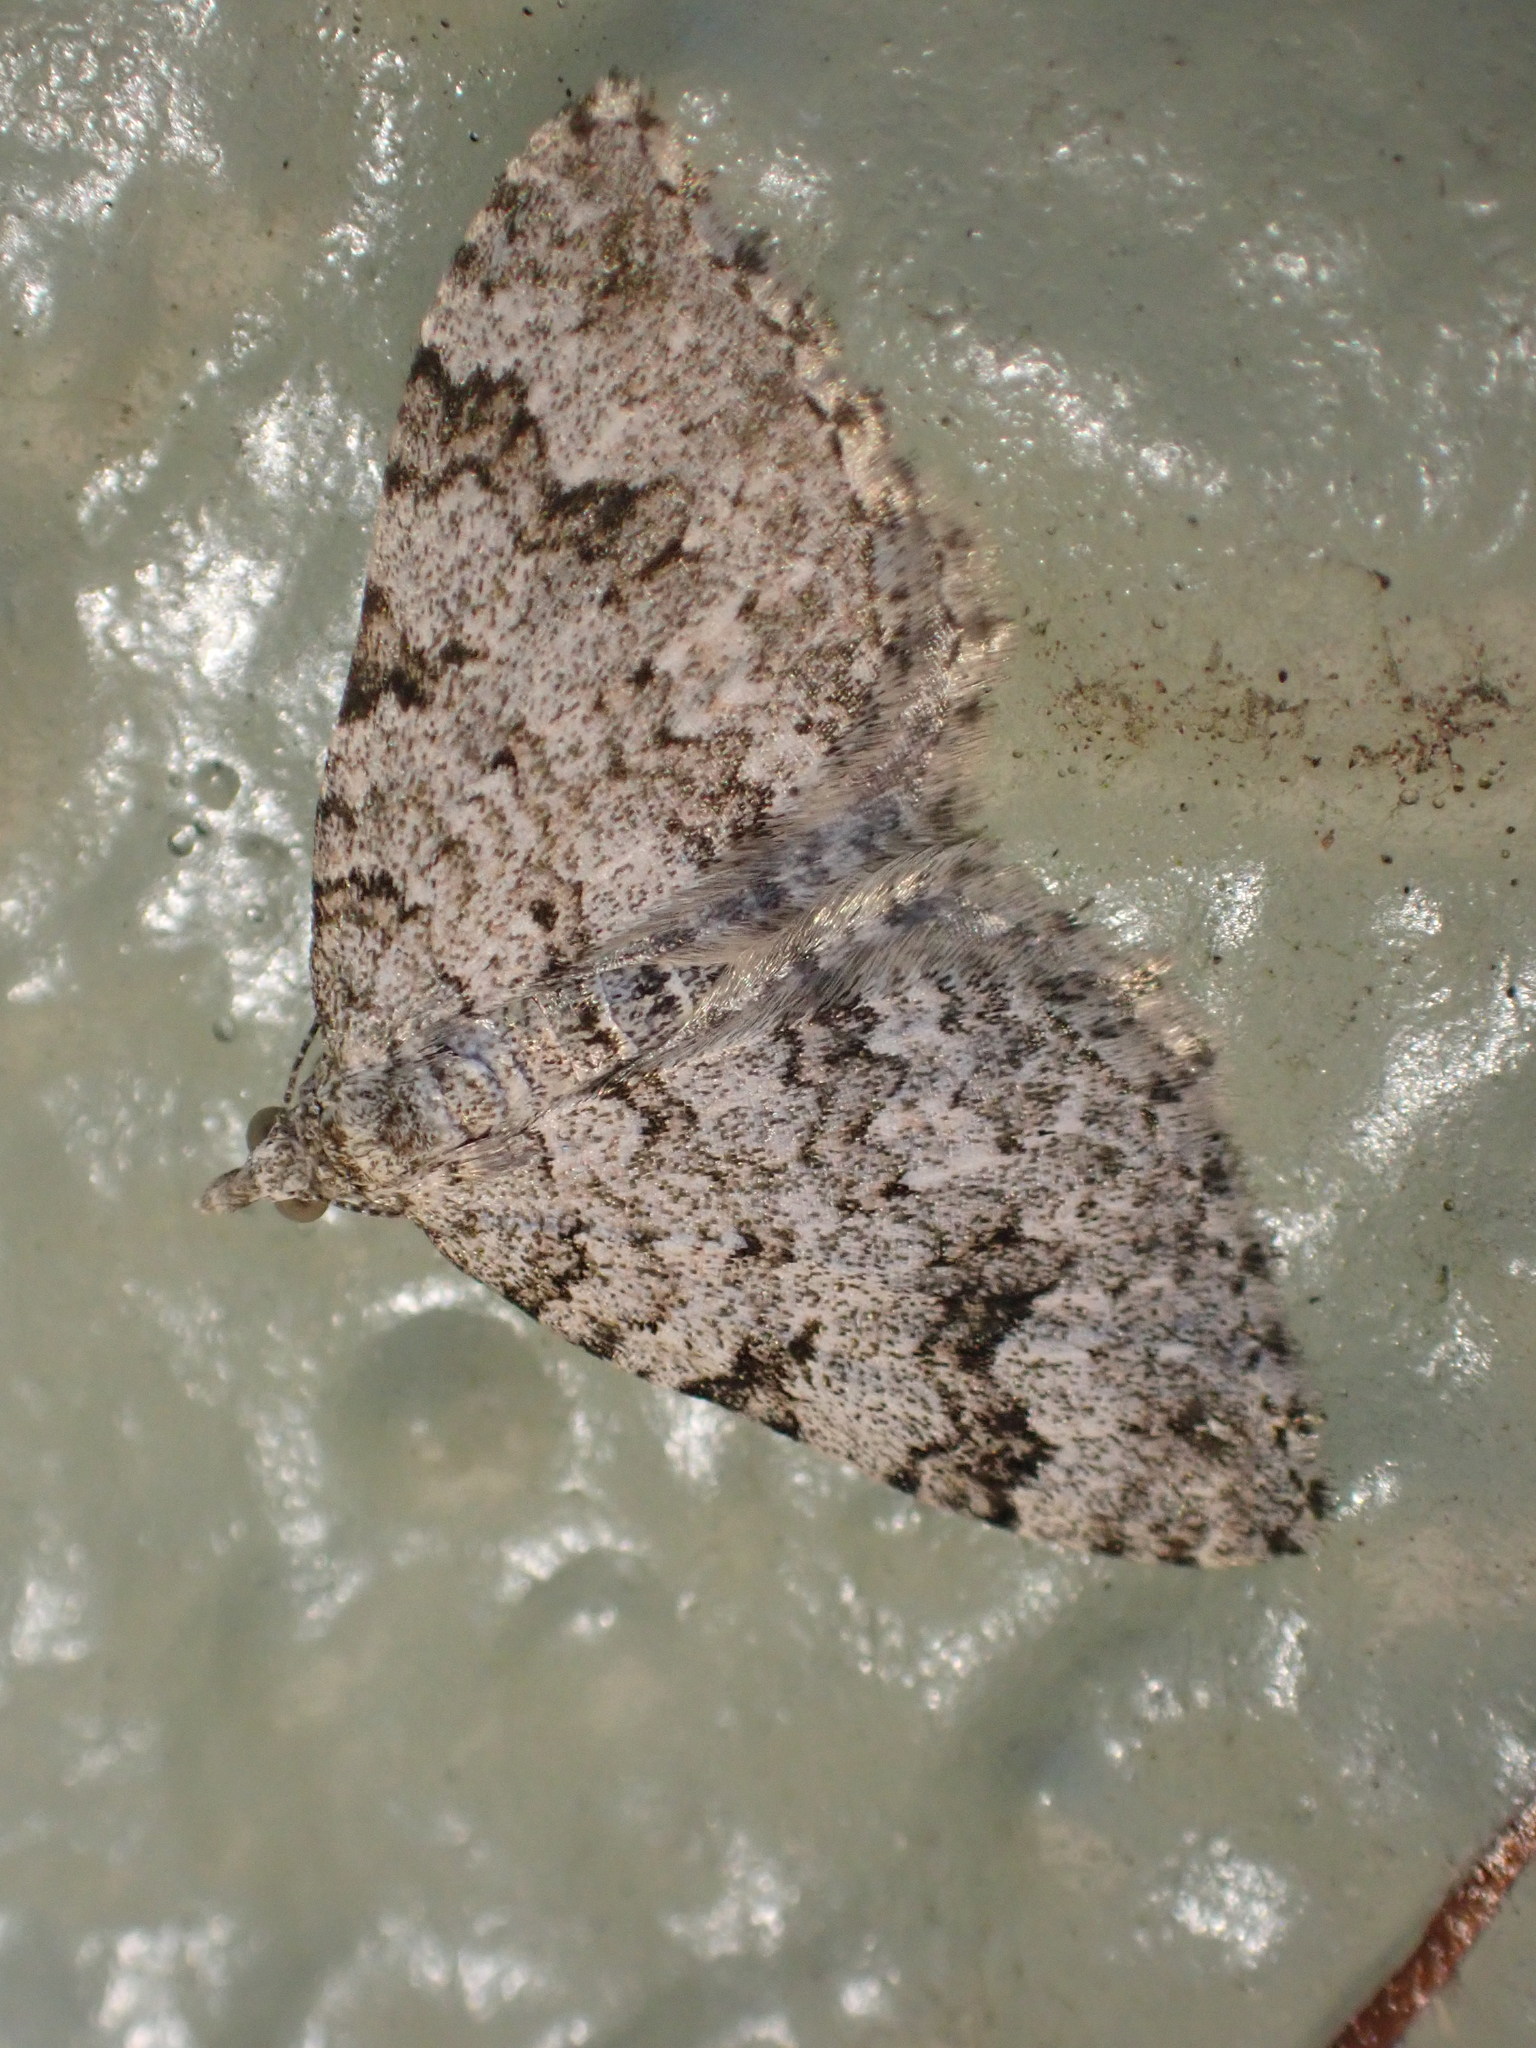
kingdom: Animalia
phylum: Arthropoda
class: Insecta
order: Lepidoptera
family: Geometridae
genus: Helastia
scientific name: Helastia cinerearia
